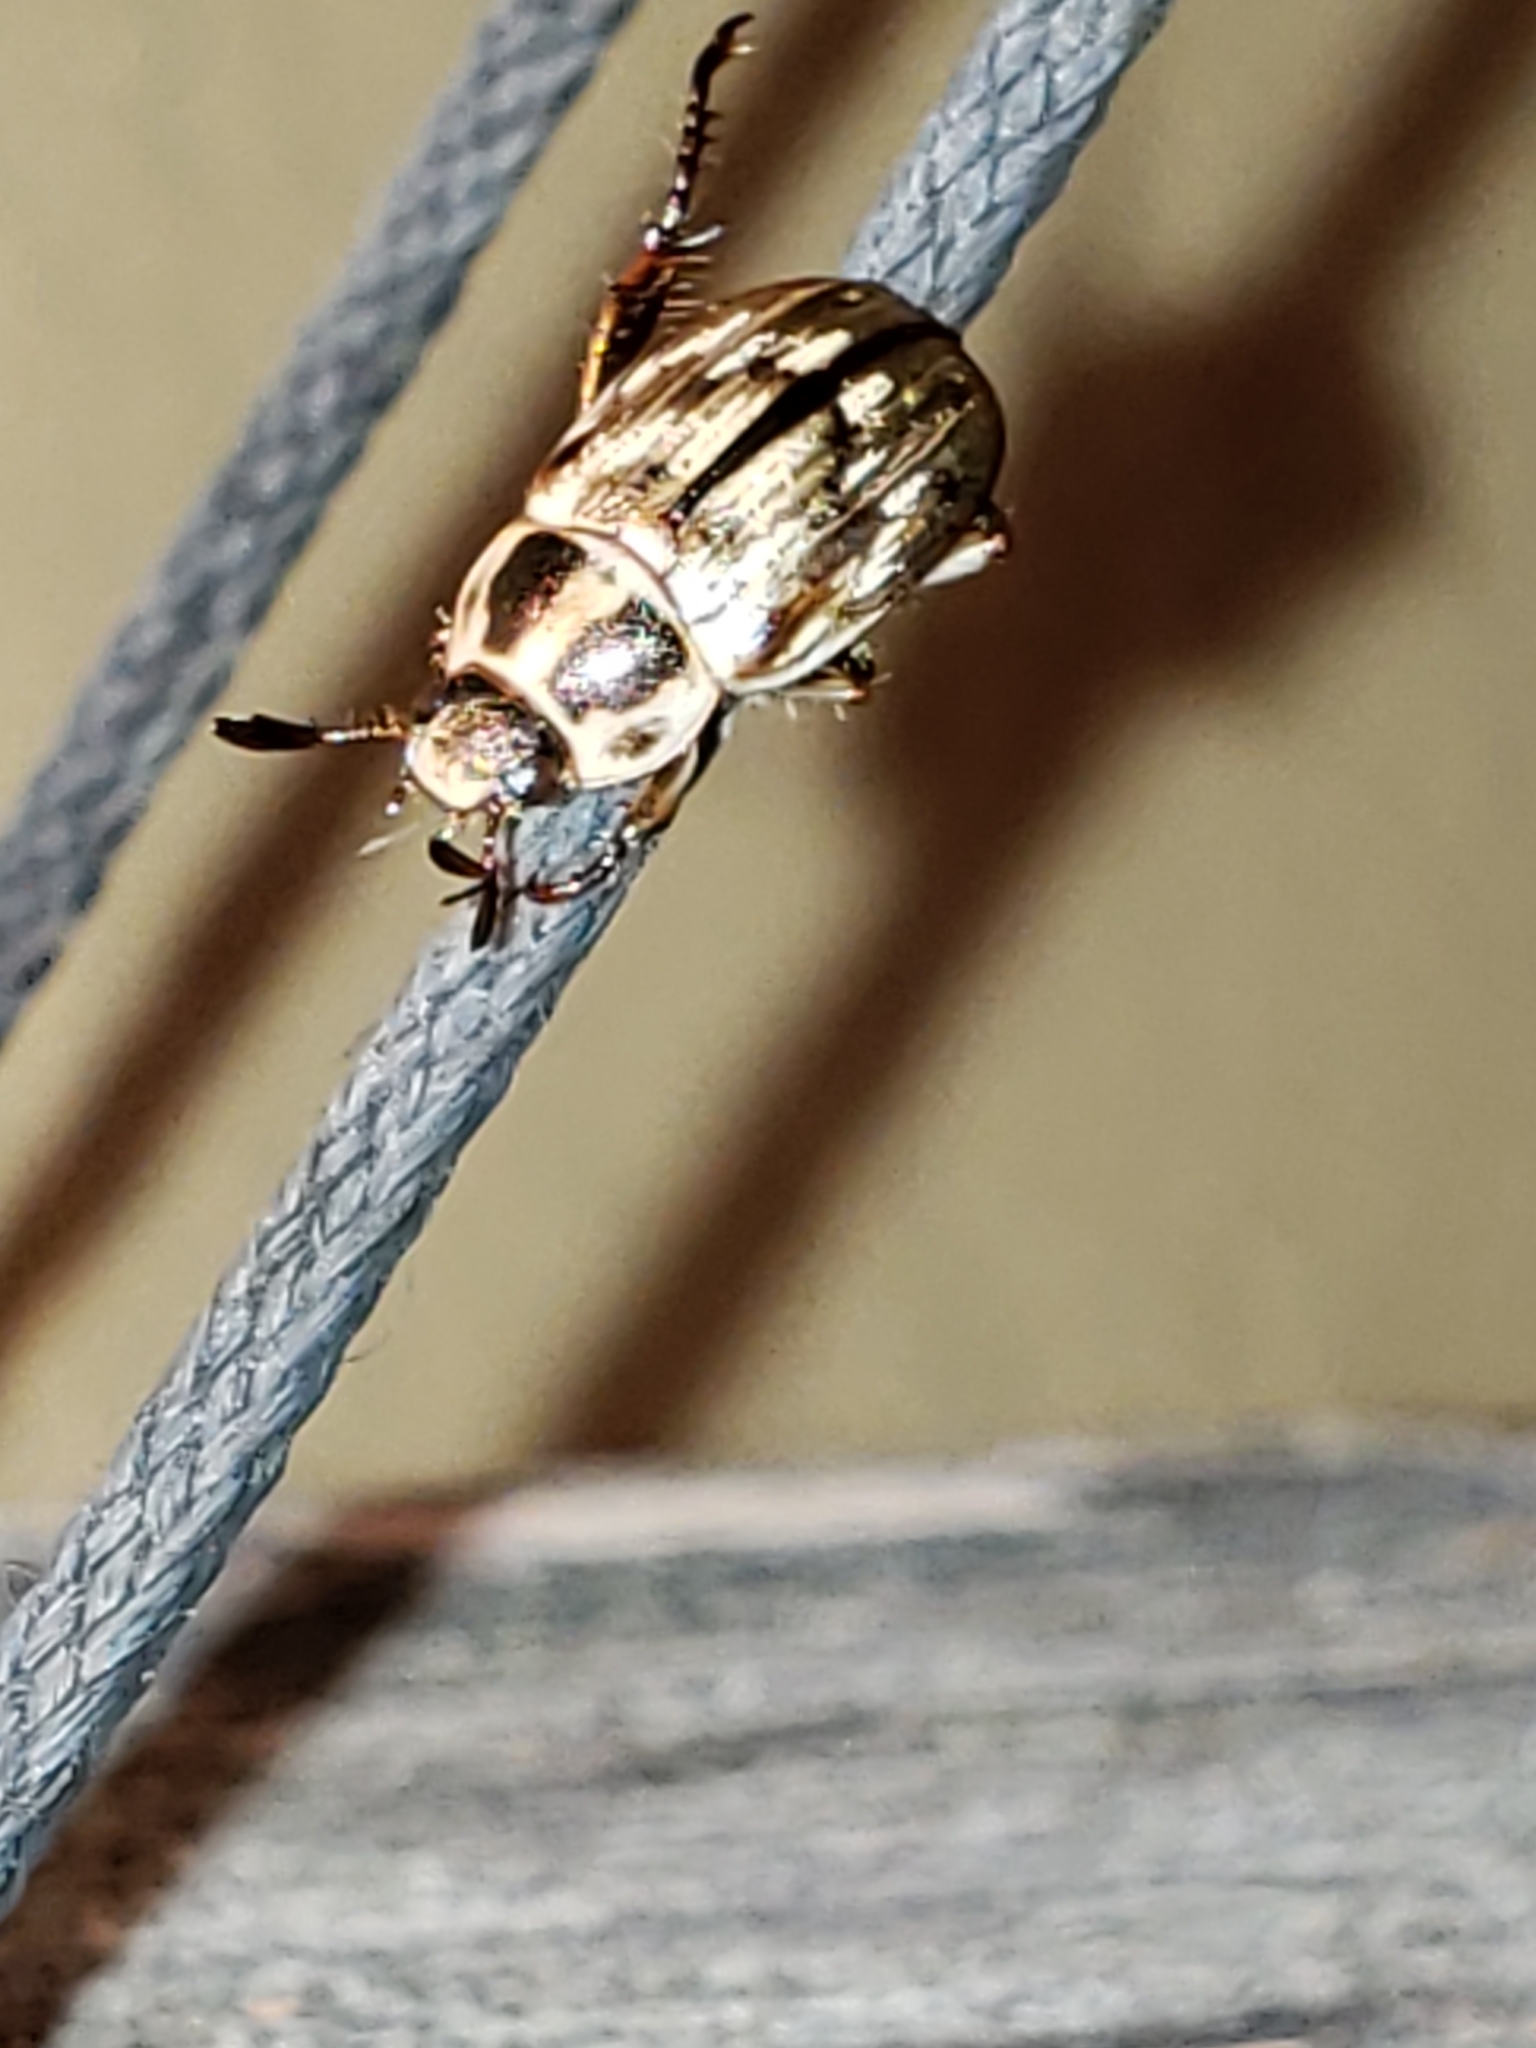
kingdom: Animalia
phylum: Arthropoda
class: Insecta
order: Coleoptera
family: Scarabaeidae
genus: Exomala
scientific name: Exomala orientalis
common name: Oriental beetle
